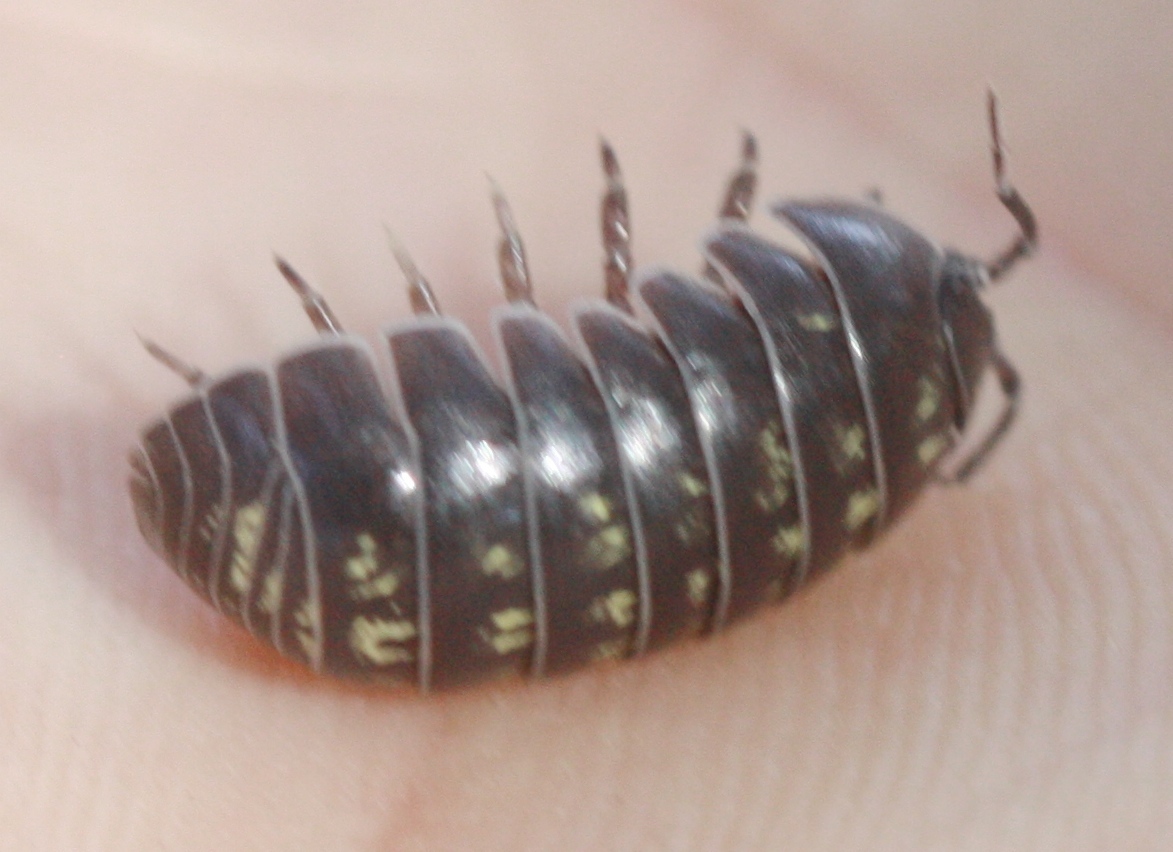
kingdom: Animalia
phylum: Arthropoda
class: Malacostraca
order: Isopoda
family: Armadillidiidae
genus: Armadillidium
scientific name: Armadillidium vulgare
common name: Common pill woodlouse
